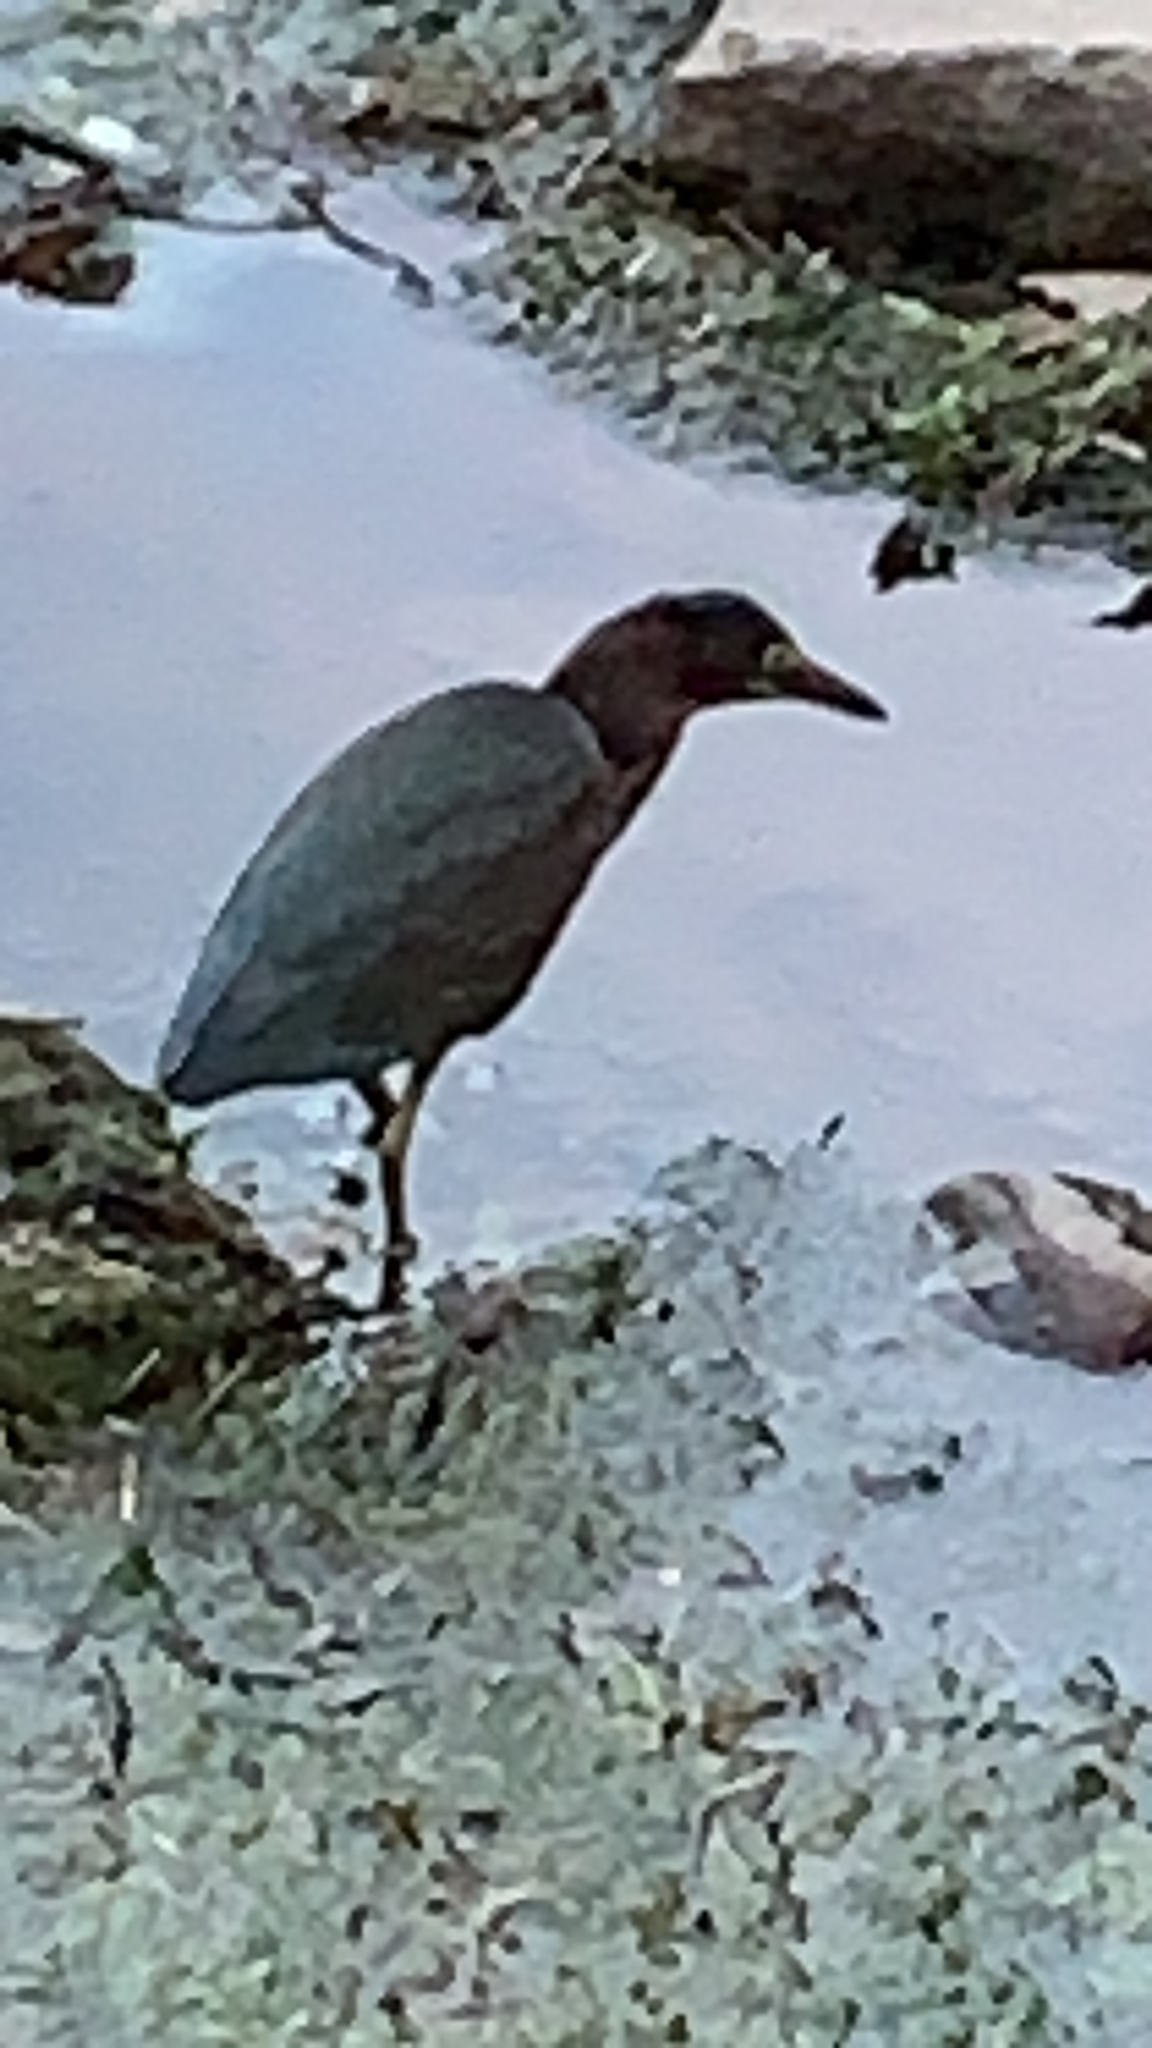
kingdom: Animalia
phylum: Chordata
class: Aves
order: Pelecaniformes
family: Ardeidae
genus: Butorides
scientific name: Butorides virescens
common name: Green heron
